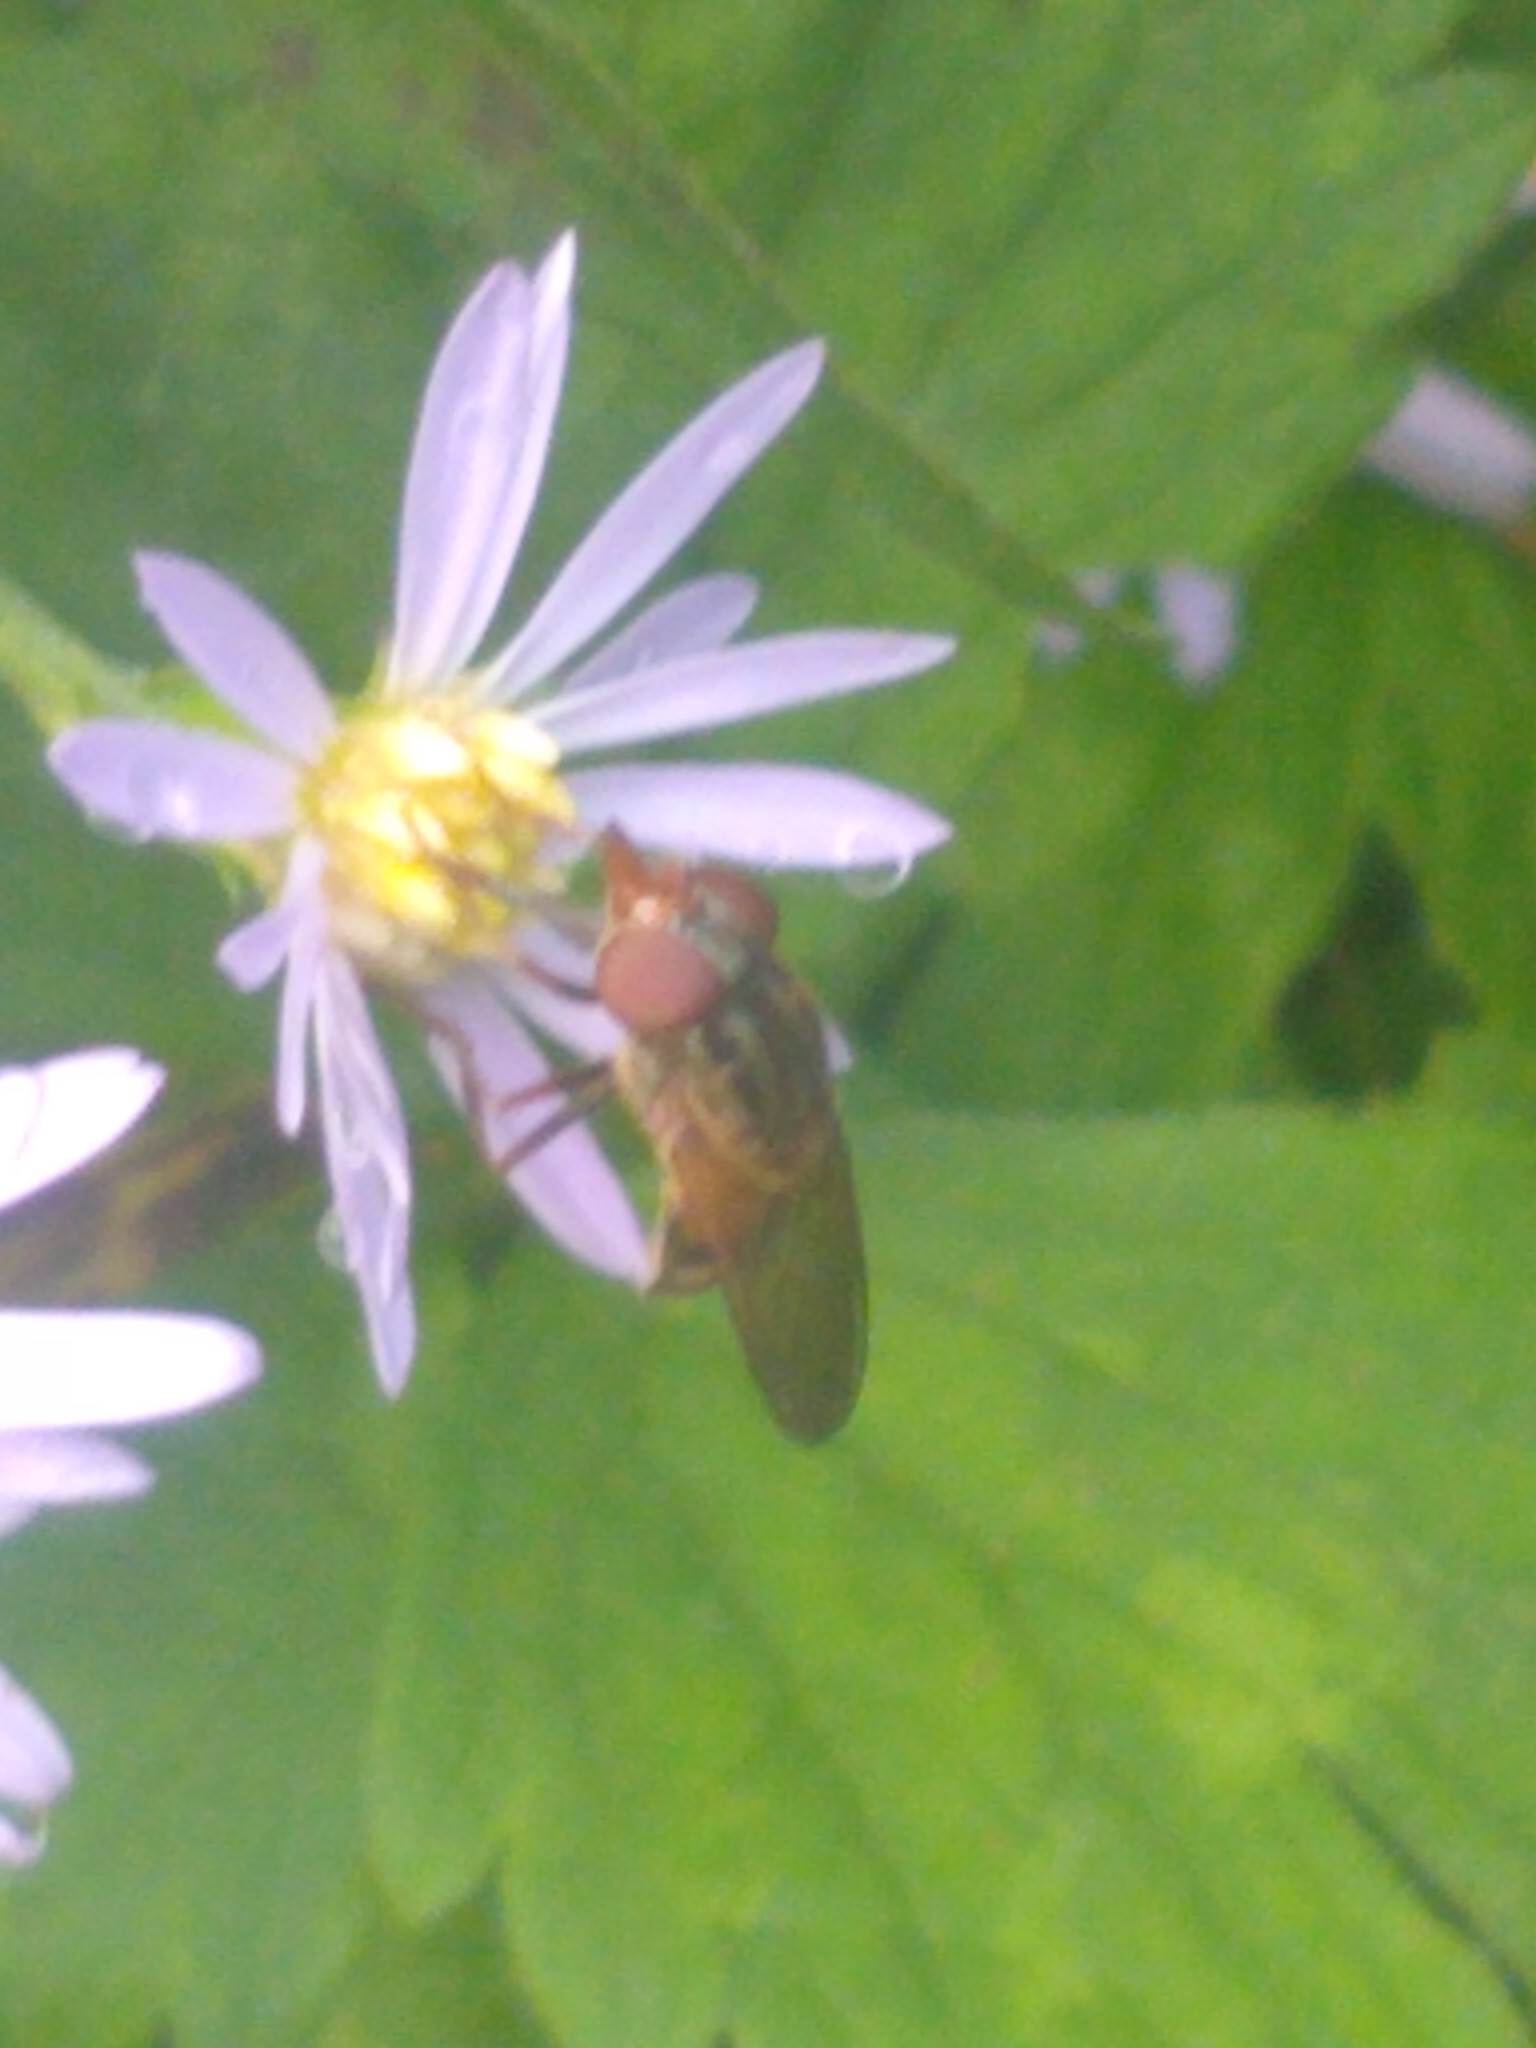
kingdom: Animalia
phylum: Arthropoda
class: Insecta
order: Diptera
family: Syrphidae
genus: Rhingia
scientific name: Rhingia nasica
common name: American snout fly
